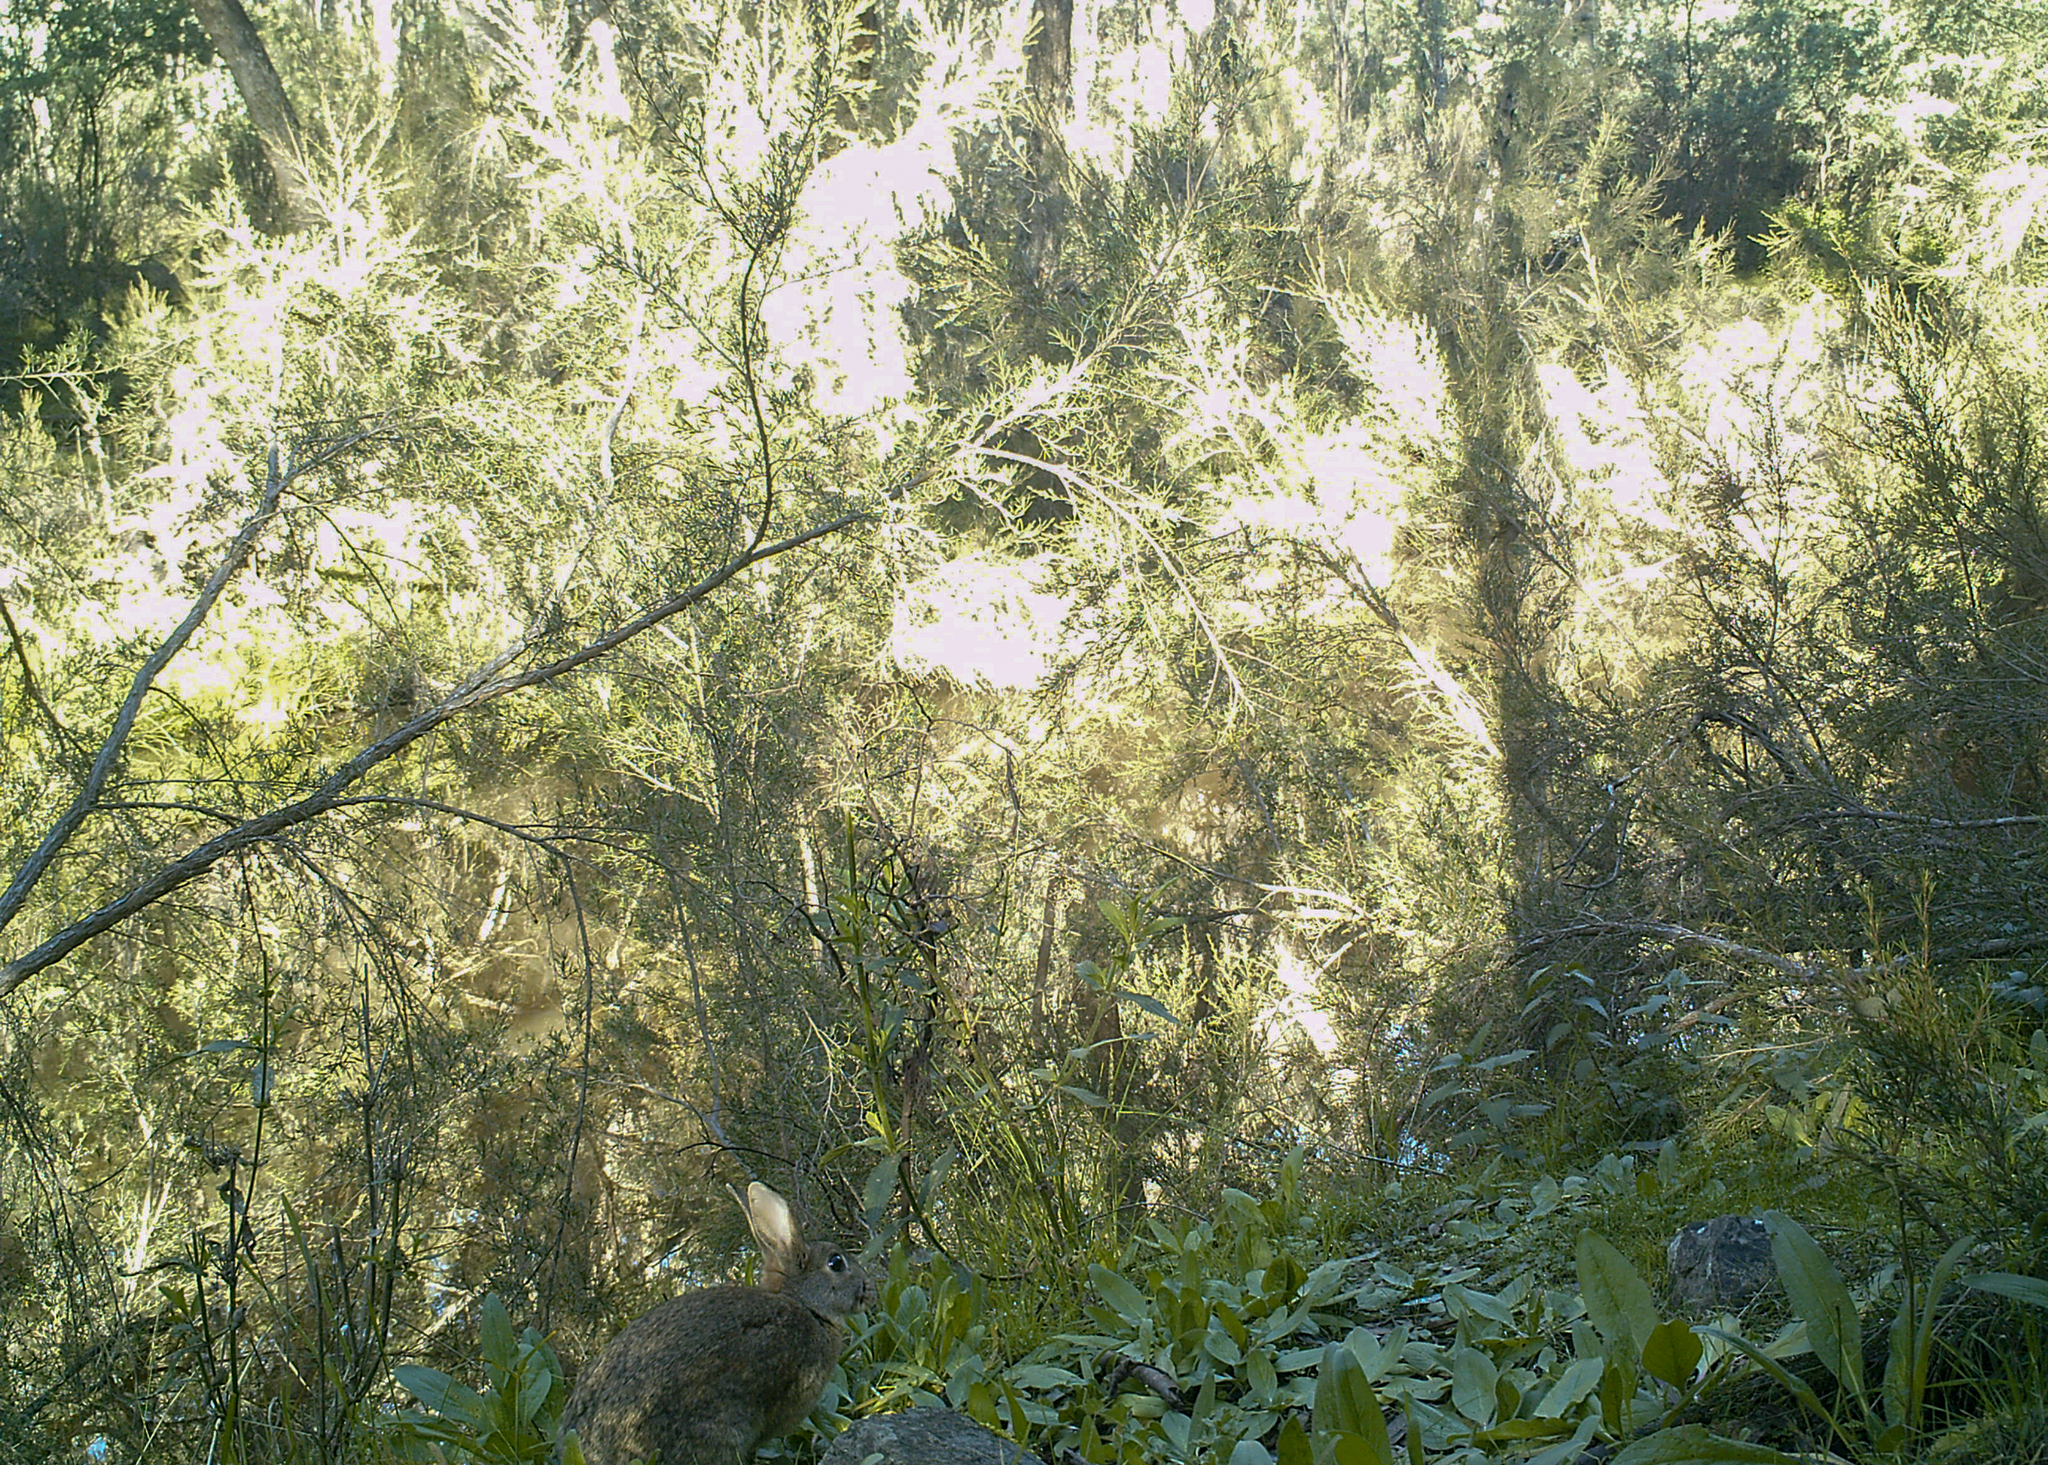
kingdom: Animalia
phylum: Chordata
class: Mammalia
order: Lagomorpha
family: Leporidae
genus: Oryctolagus
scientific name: Oryctolagus cuniculus
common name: European rabbit
